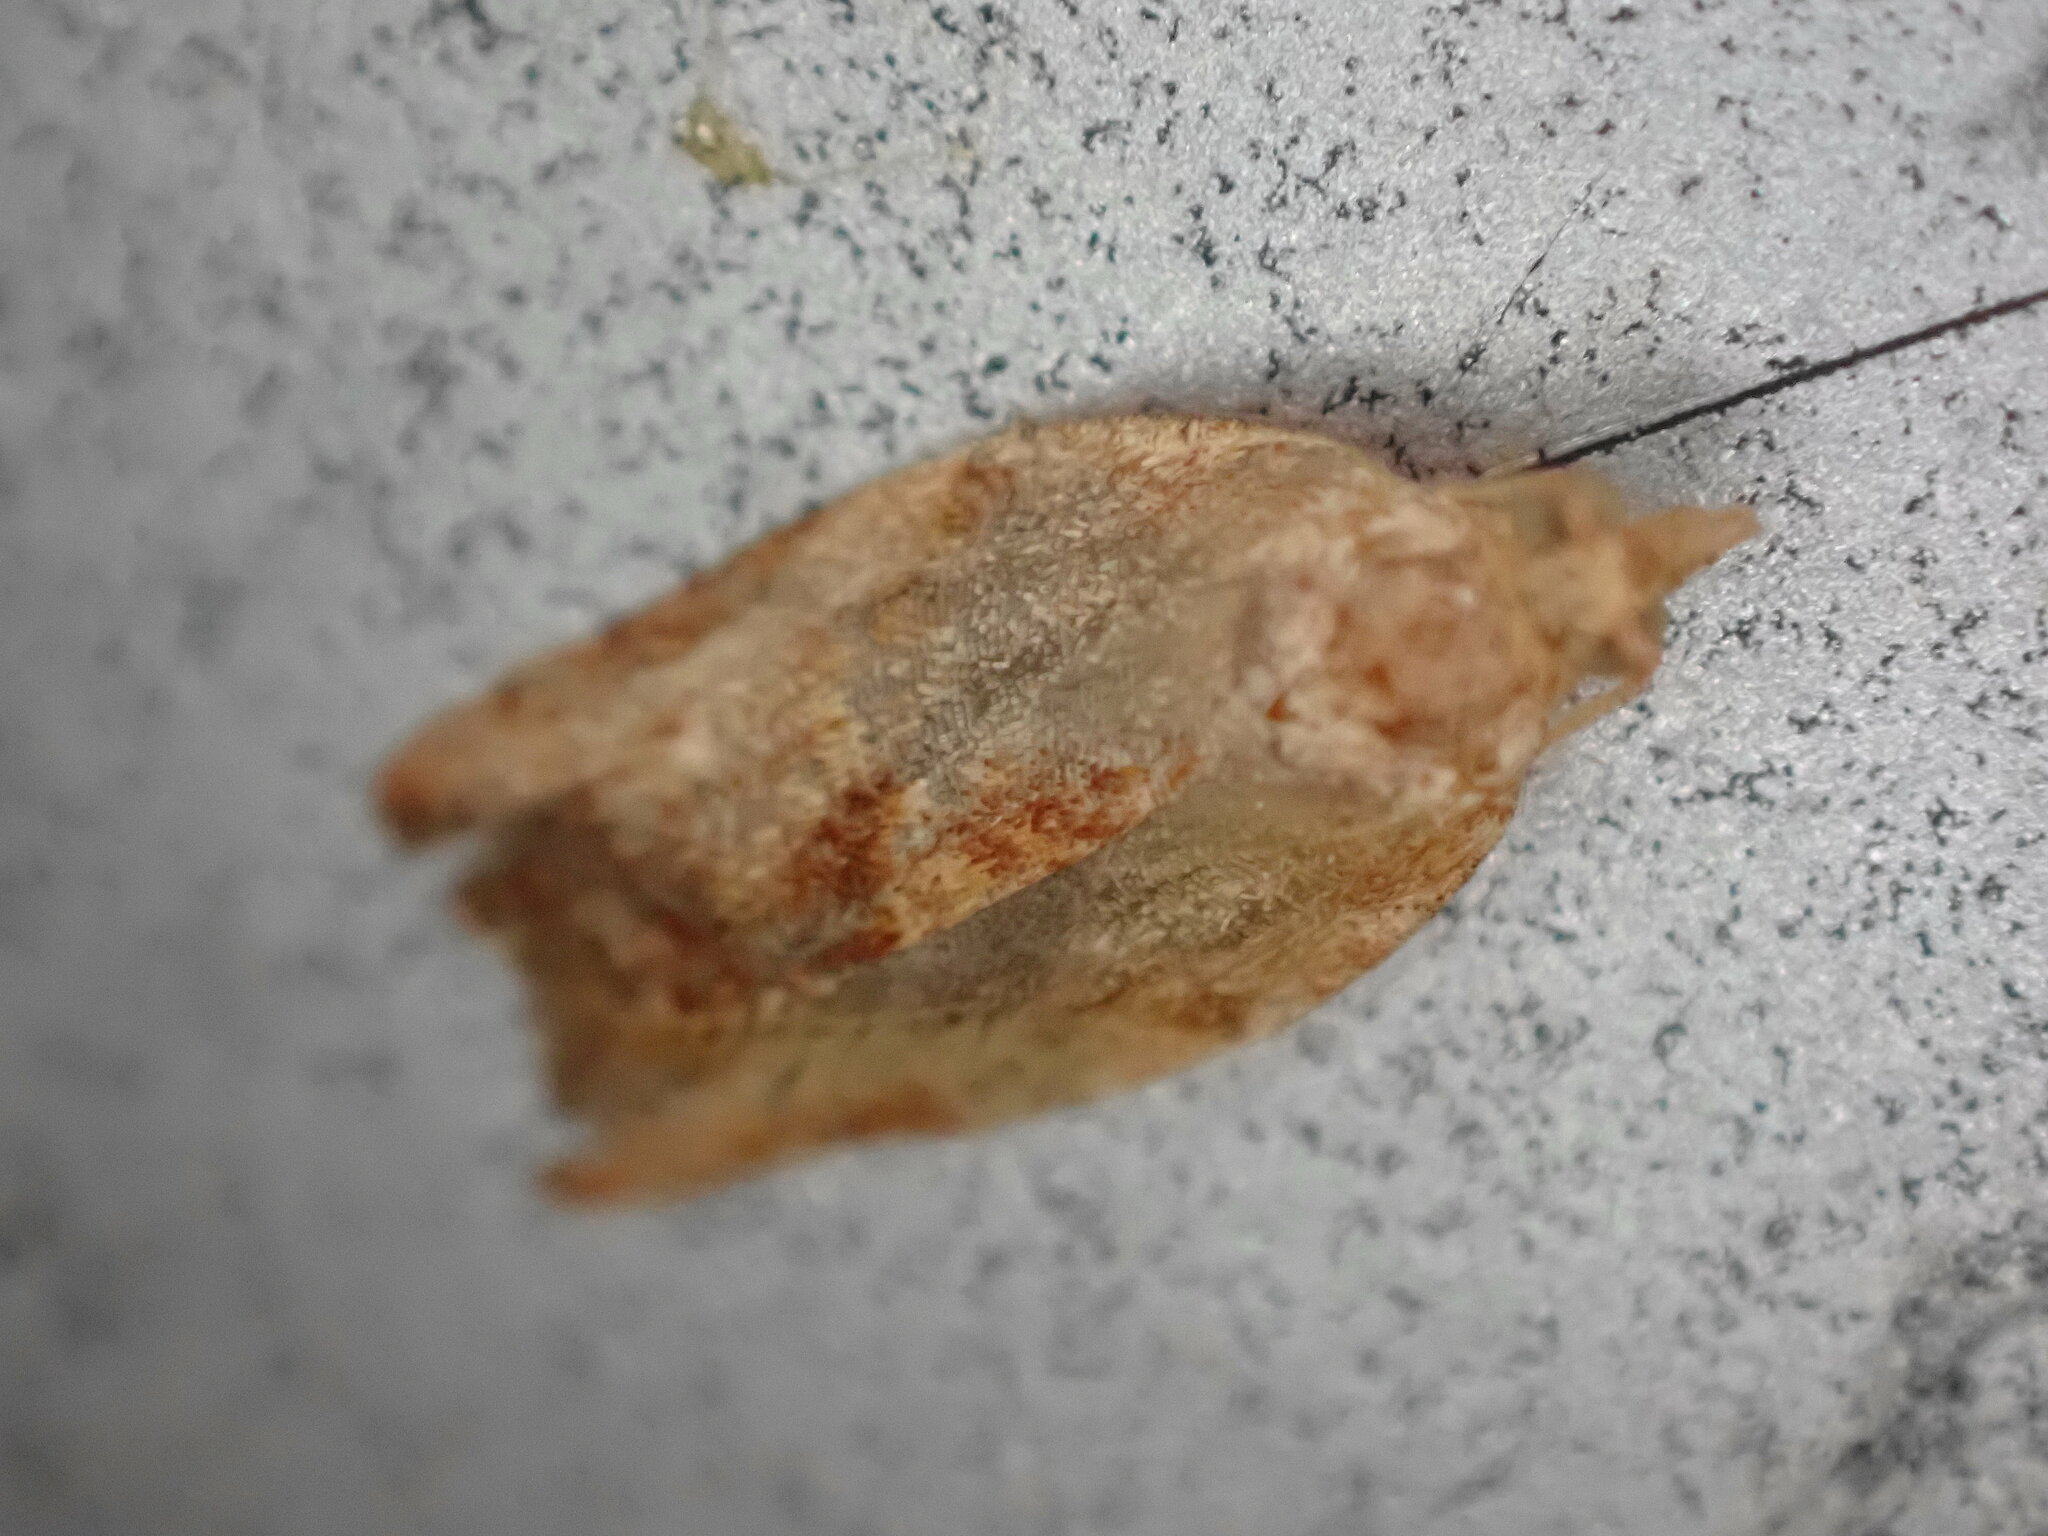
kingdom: Animalia
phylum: Arthropoda
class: Insecta
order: Lepidoptera
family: Tortricidae
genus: Epiphyas
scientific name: Epiphyas postvittana
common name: Light brown apple moth
